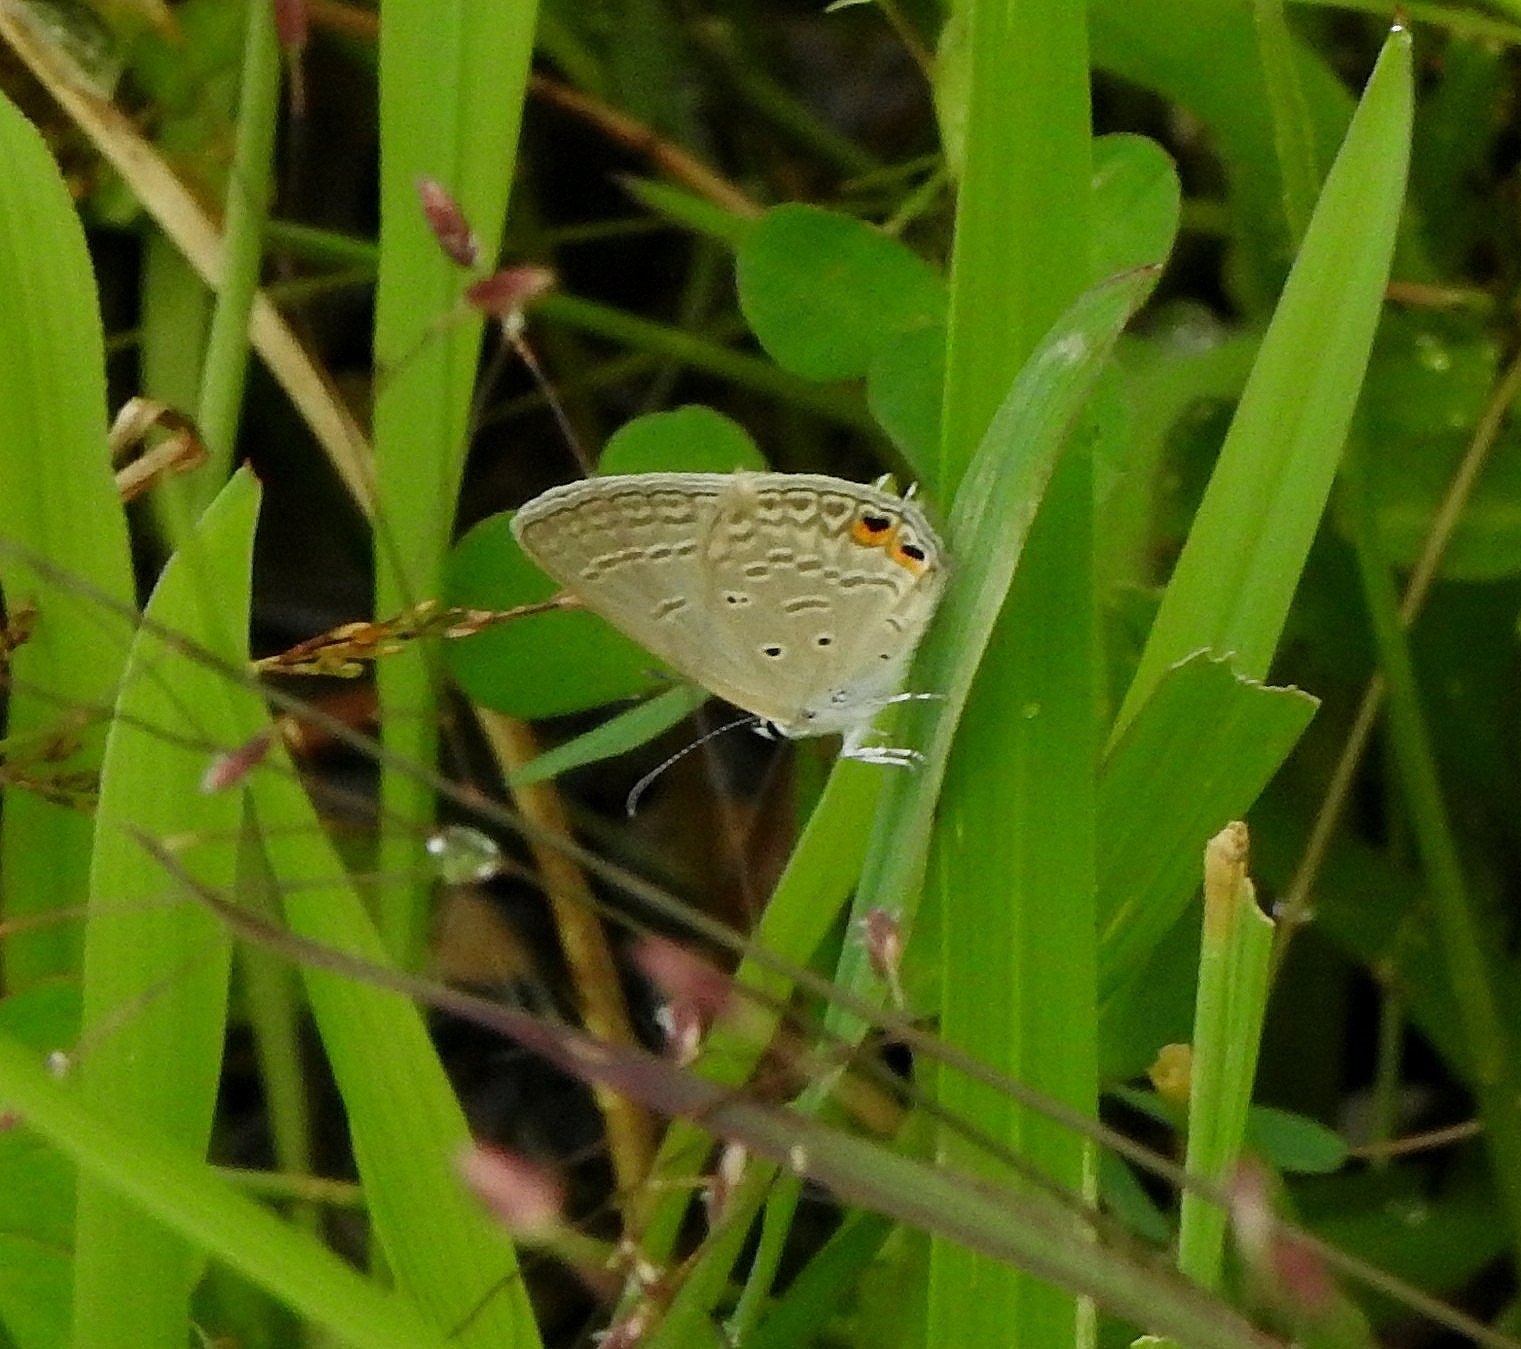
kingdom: Animalia
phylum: Arthropoda
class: Insecta
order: Lepidoptera
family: Lycaenidae
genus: Euchrysops
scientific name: Euchrysops cnejus
